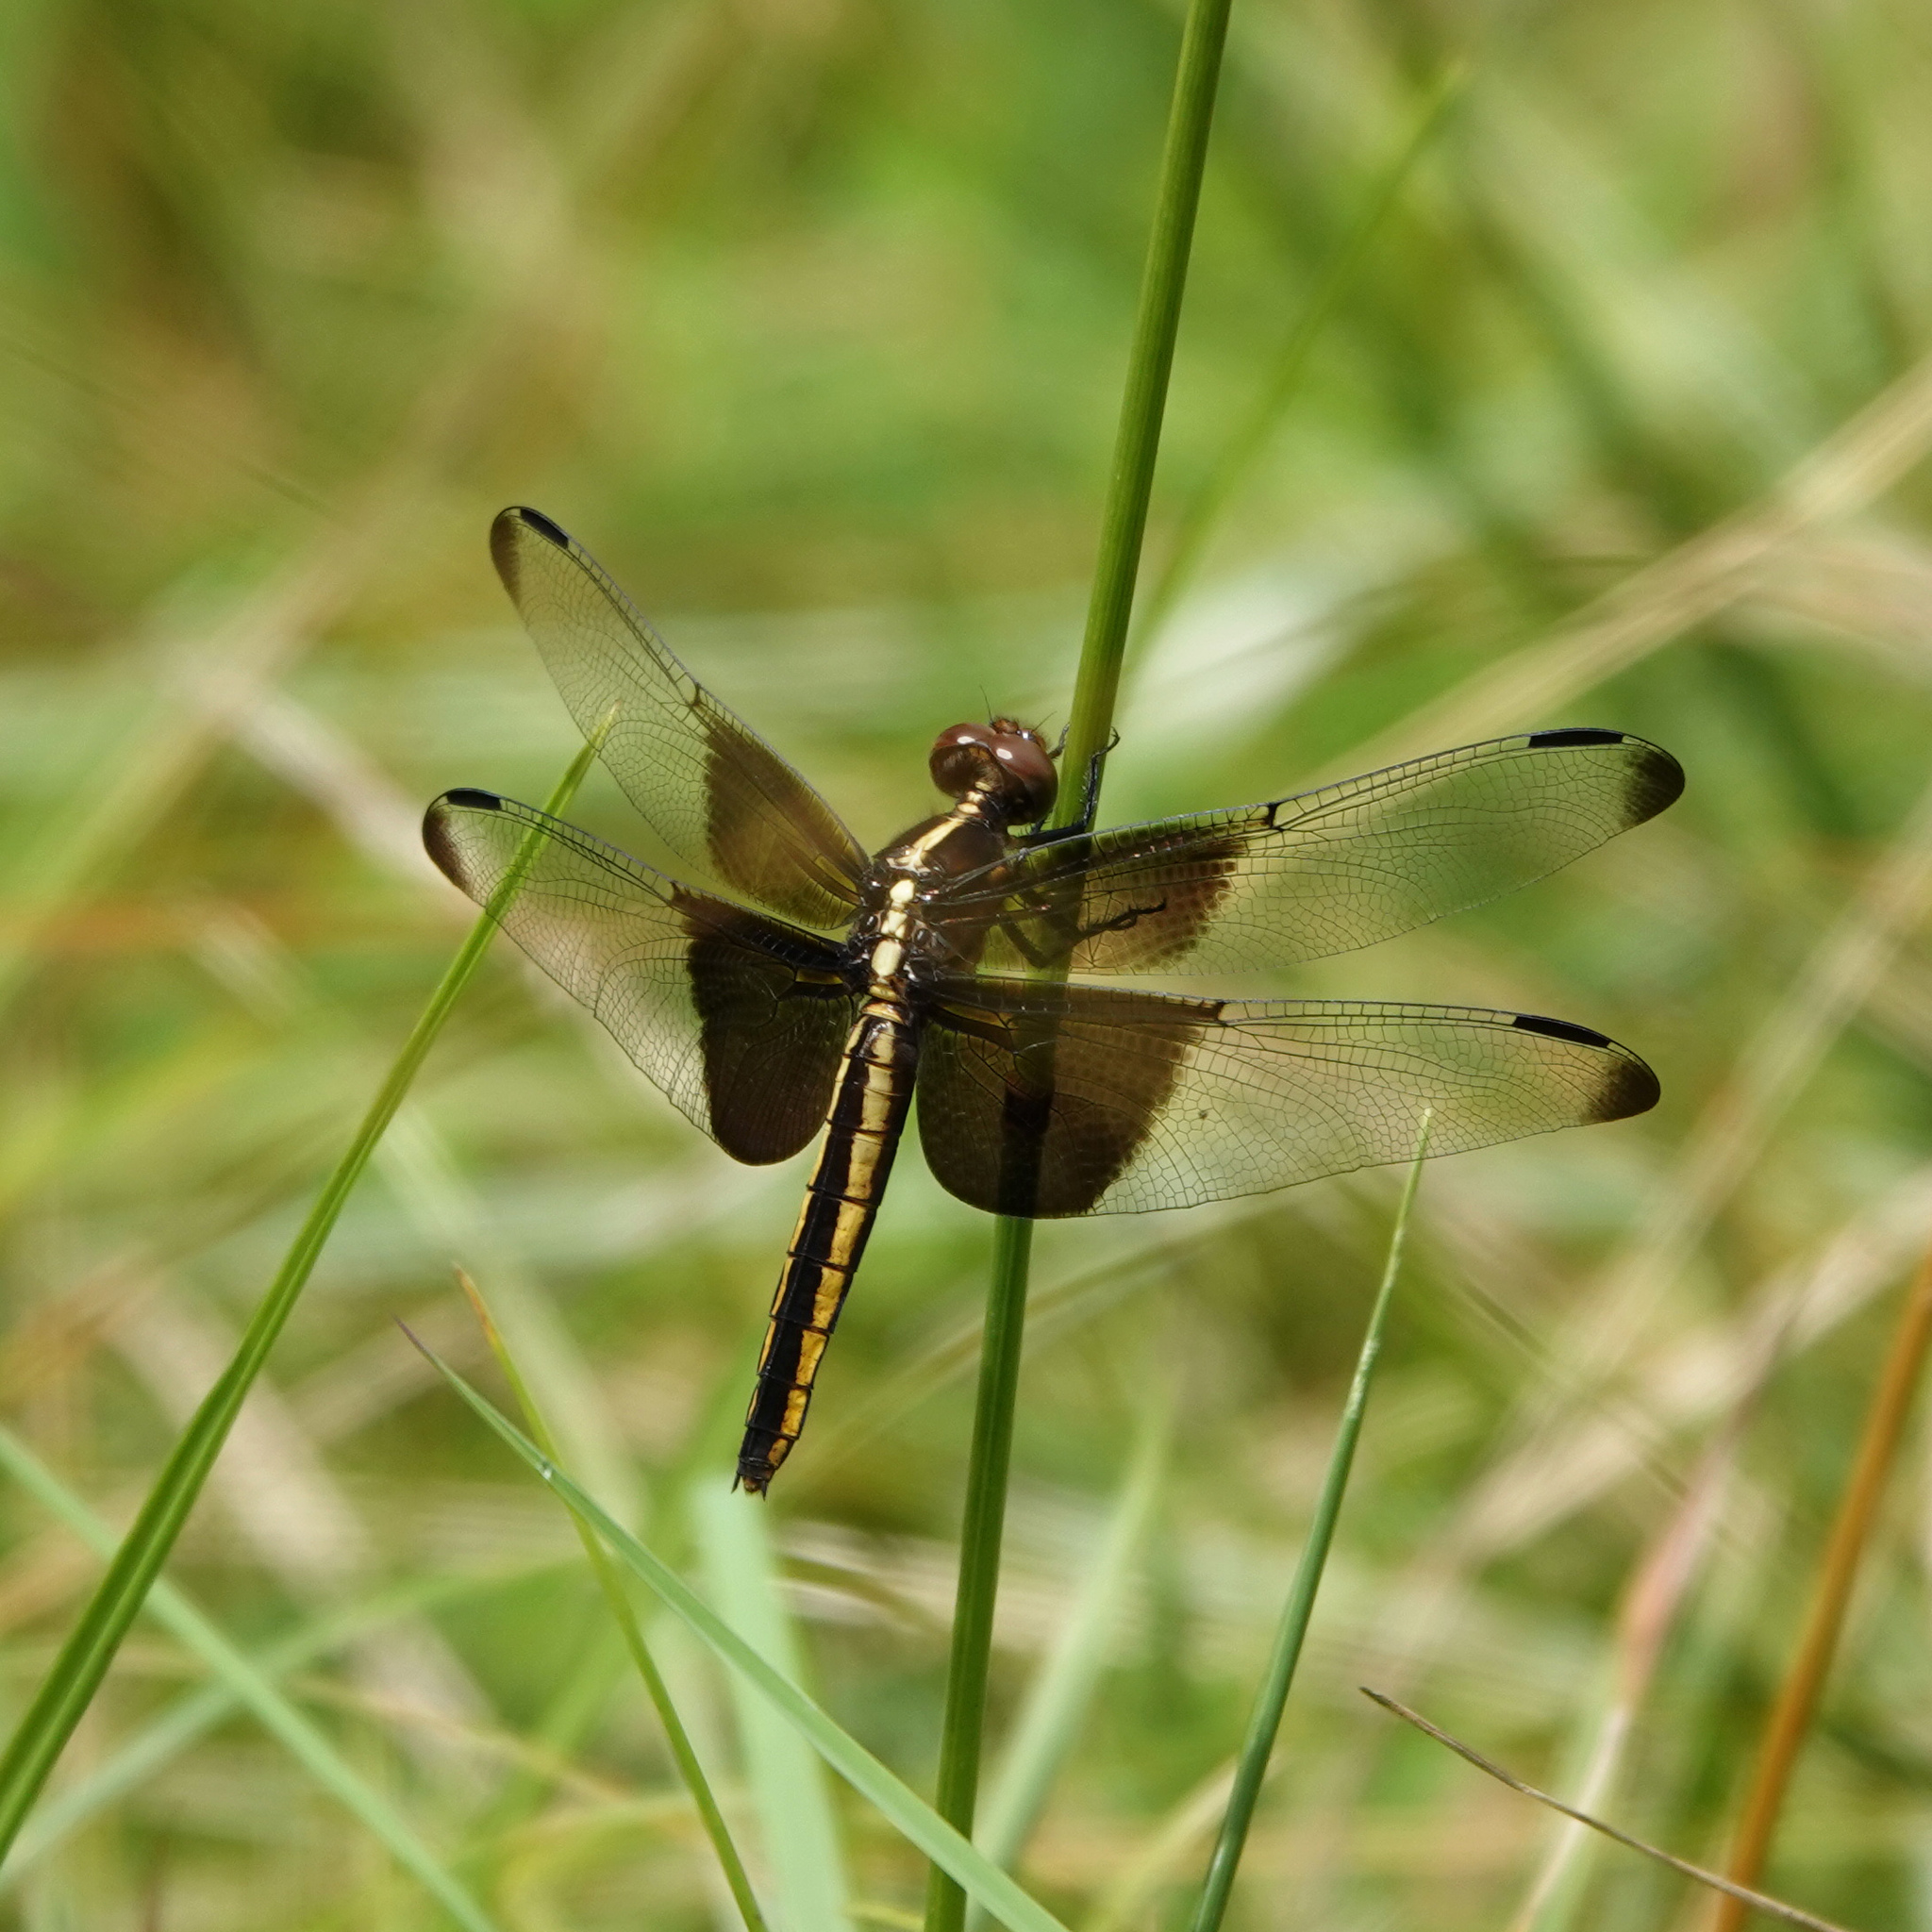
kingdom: Animalia
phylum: Arthropoda
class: Insecta
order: Odonata
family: Libellulidae
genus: Libellula
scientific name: Libellula luctuosa
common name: Widow skimmer
